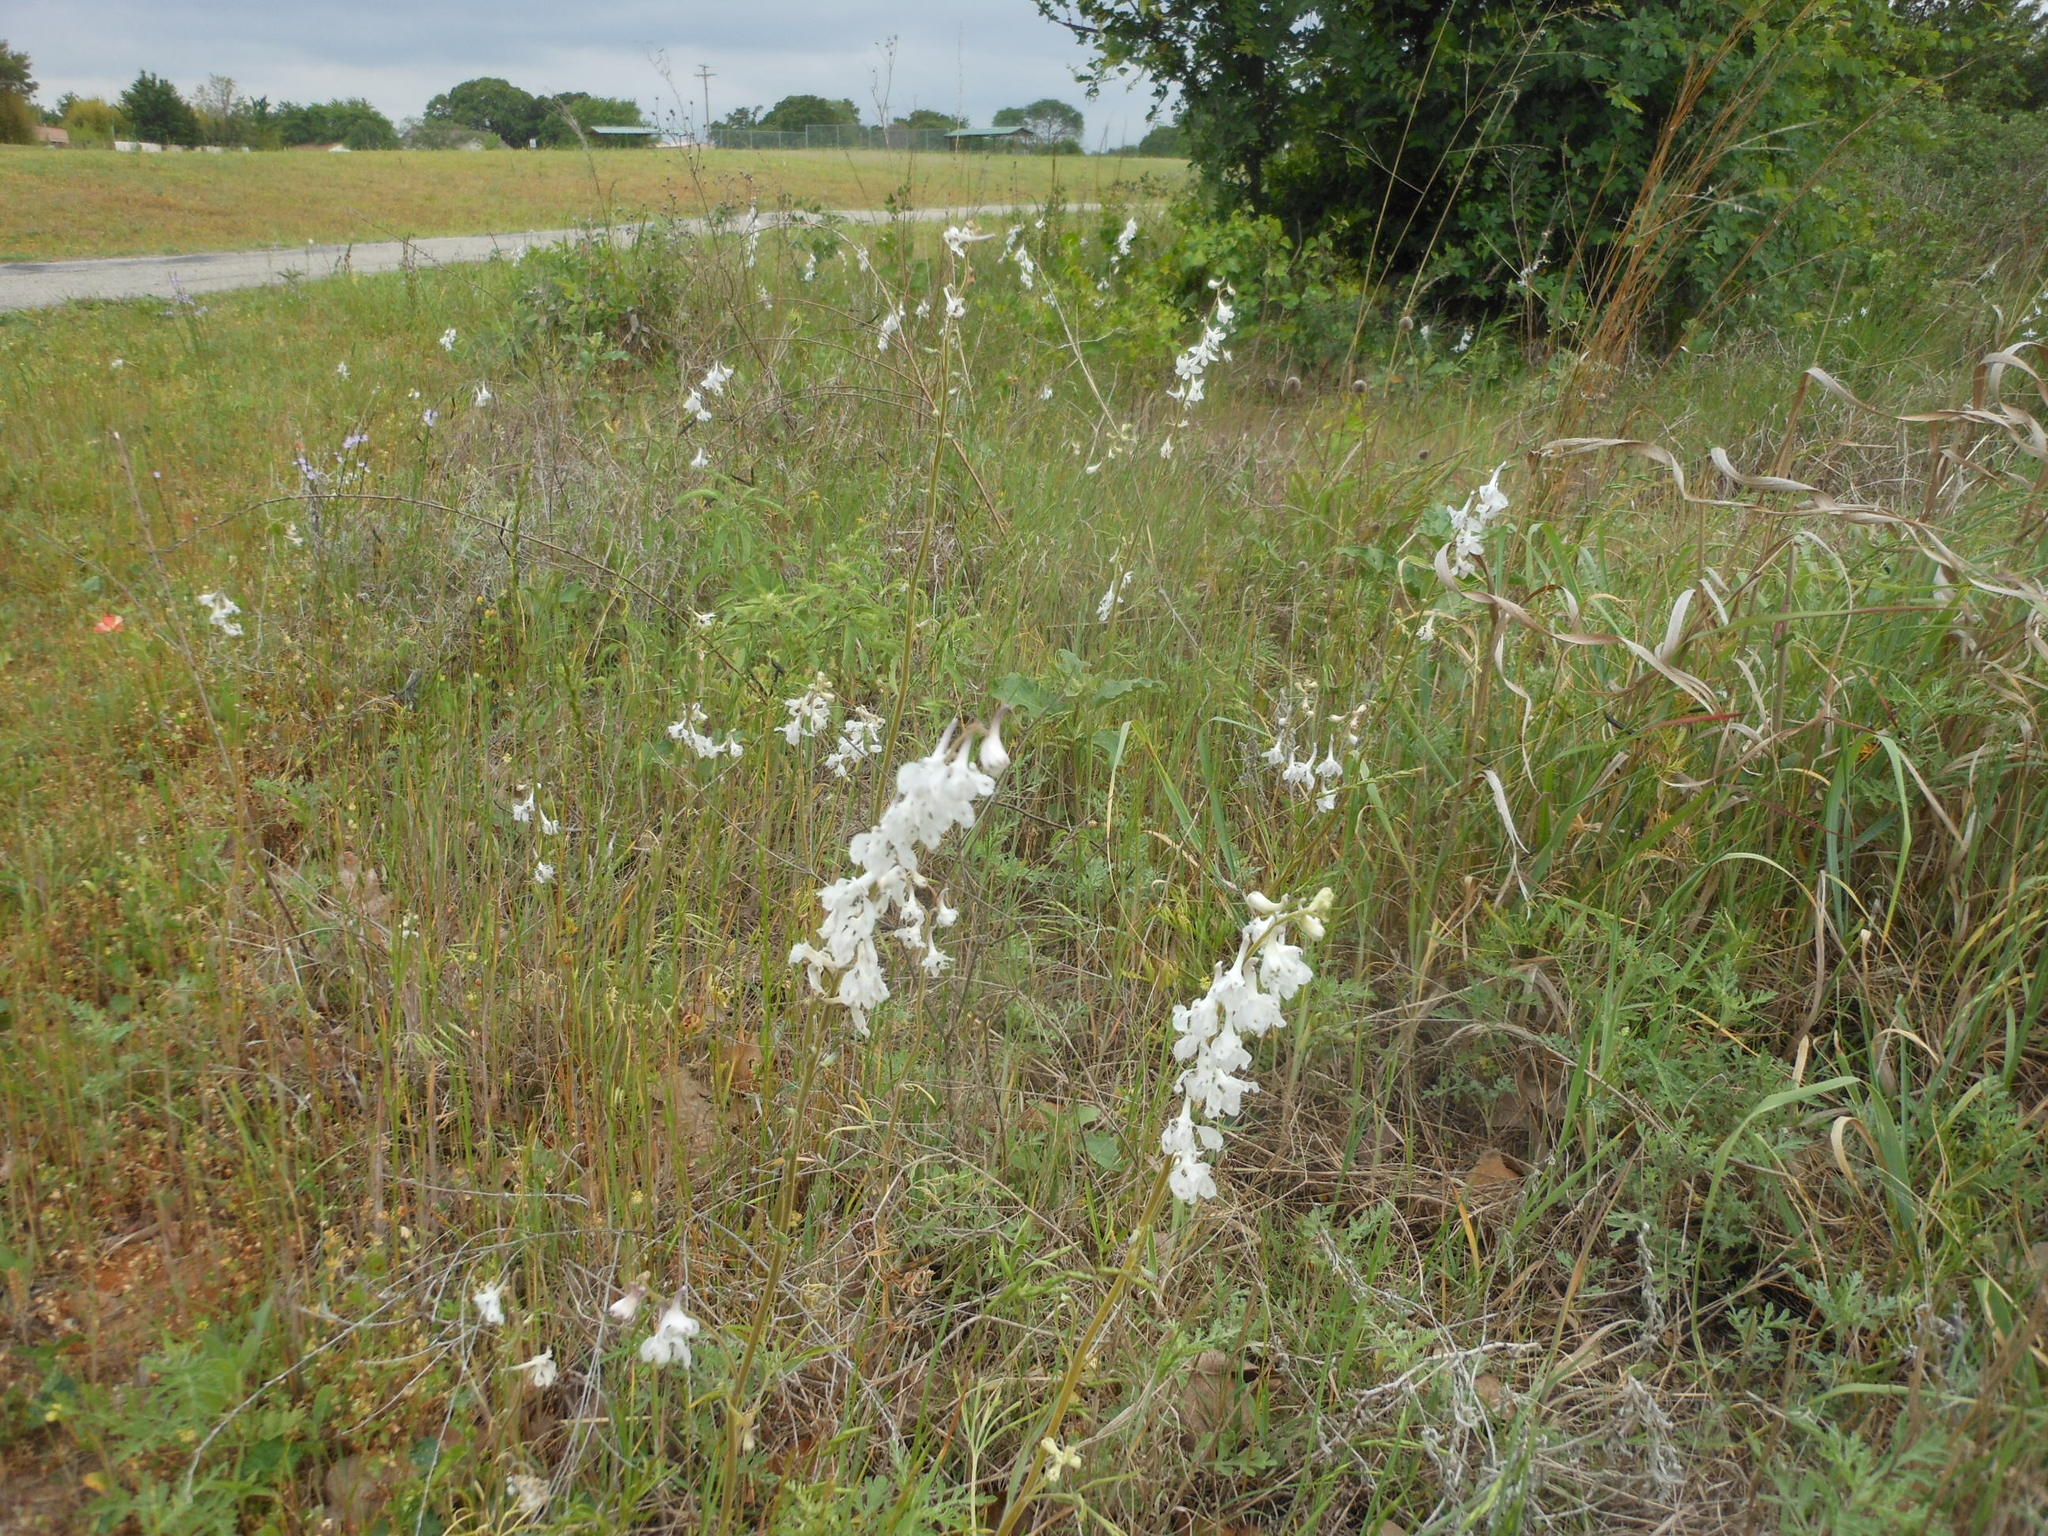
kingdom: Plantae
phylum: Tracheophyta
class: Magnoliopsida
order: Ranunculales
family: Ranunculaceae
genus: Delphinium
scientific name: Delphinium carolinianum
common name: Carolina larkspur
